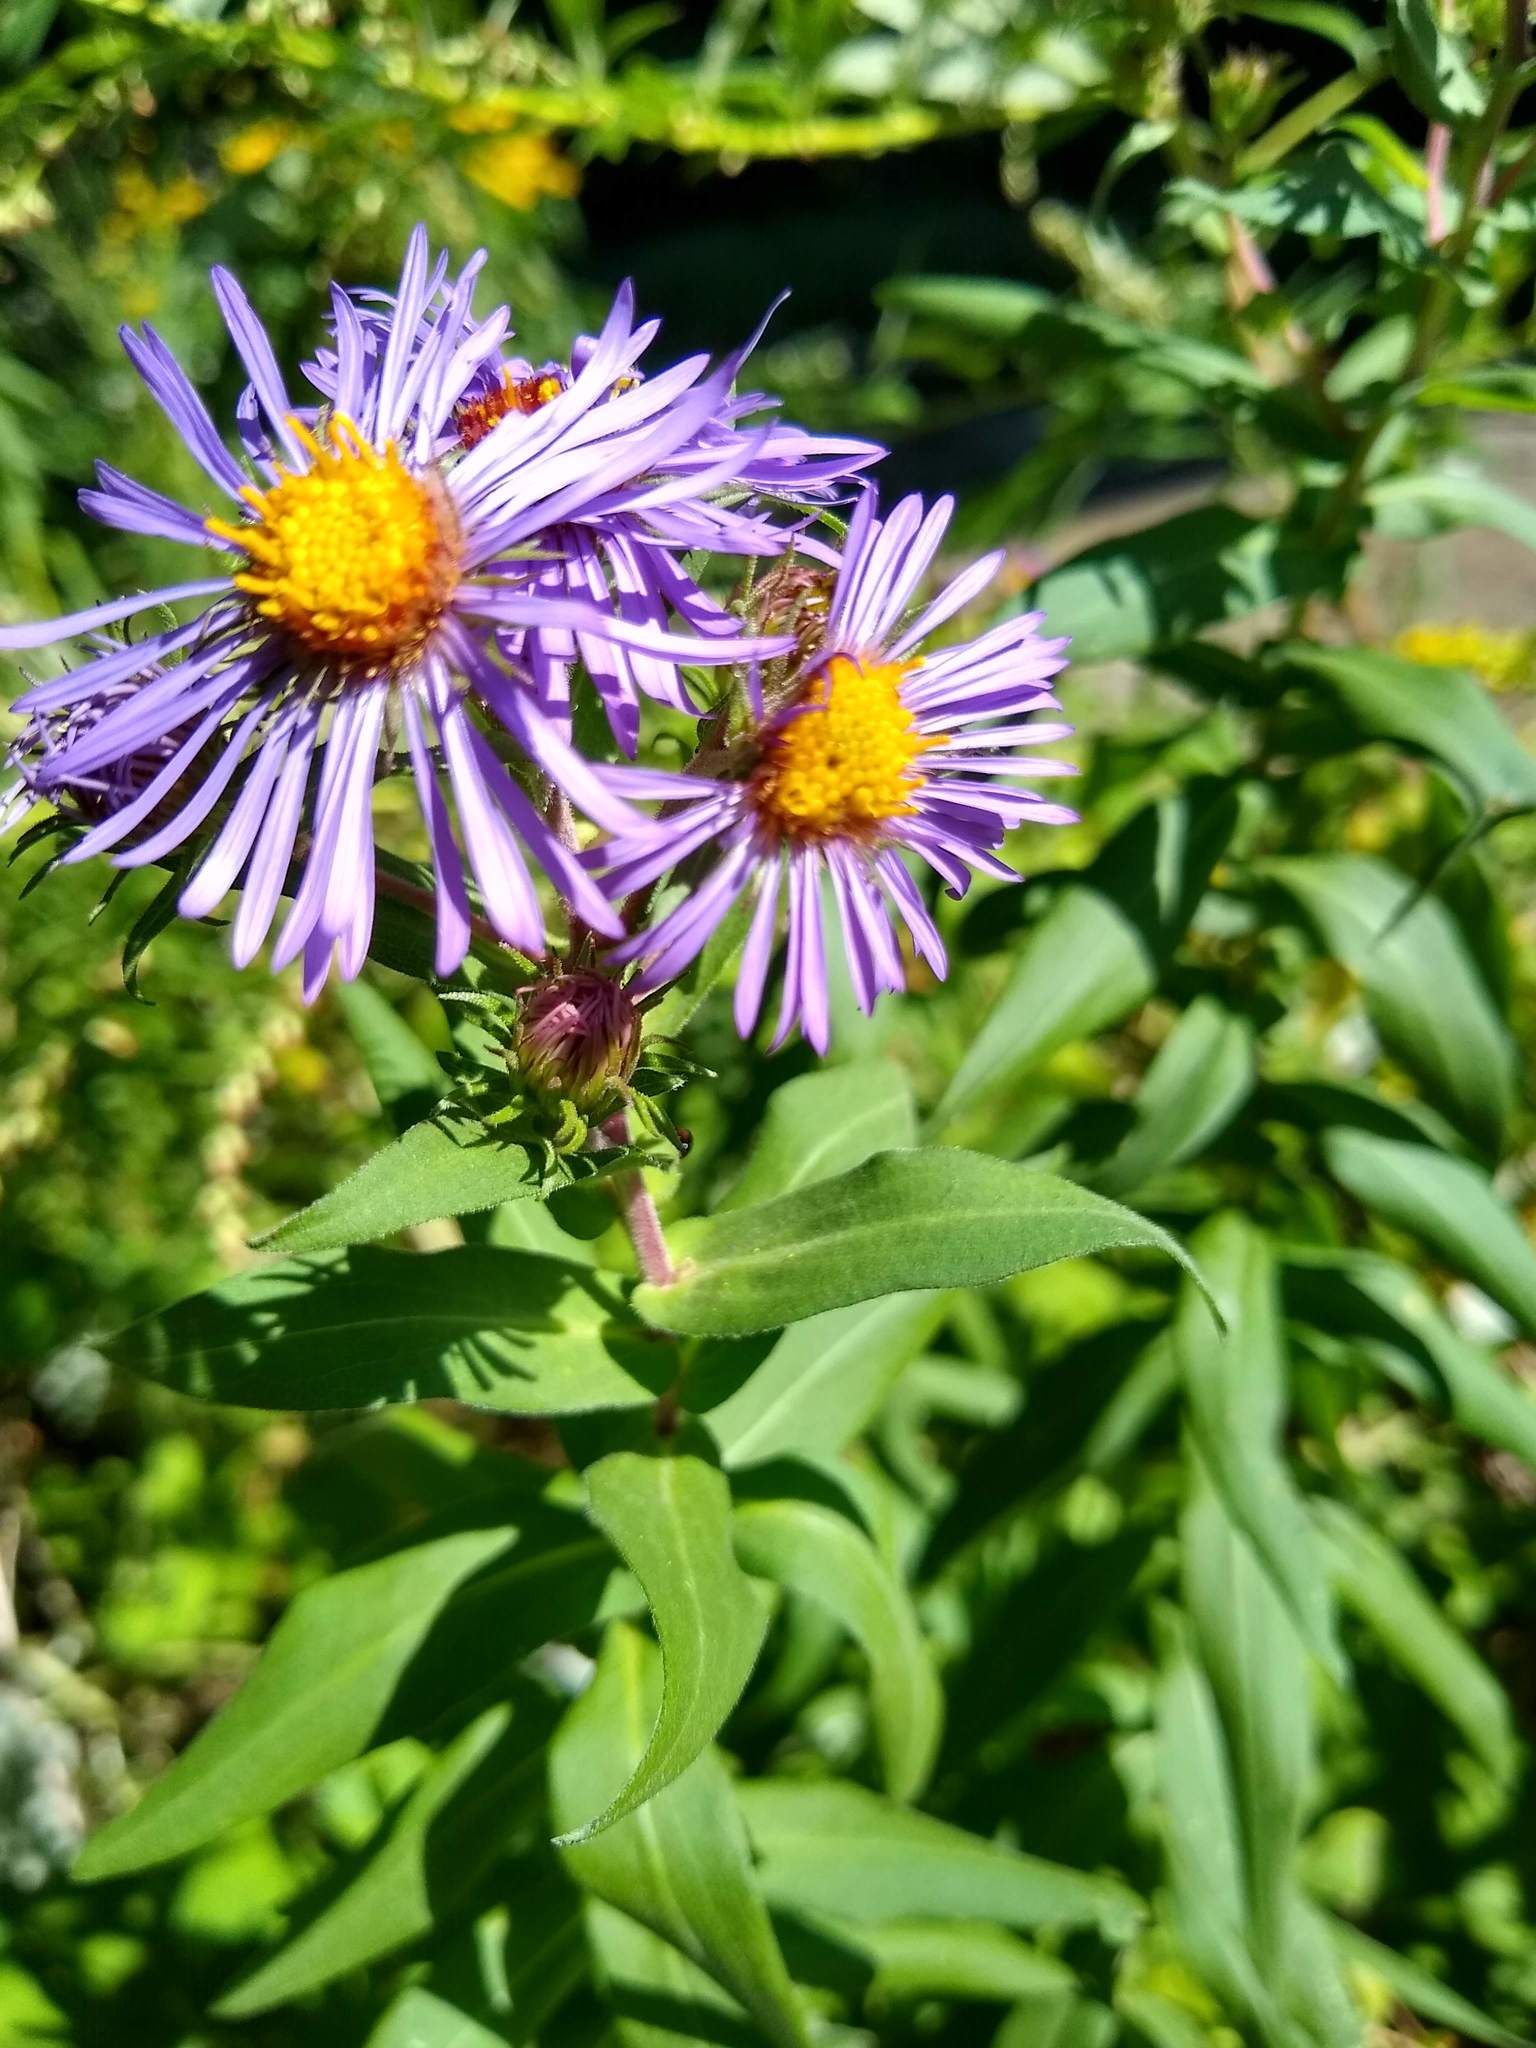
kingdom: Plantae
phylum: Tracheophyta
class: Magnoliopsida
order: Asterales
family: Asteraceae
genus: Symphyotrichum
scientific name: Symphyotrichum novae-angliae
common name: Michaelmas daisy
